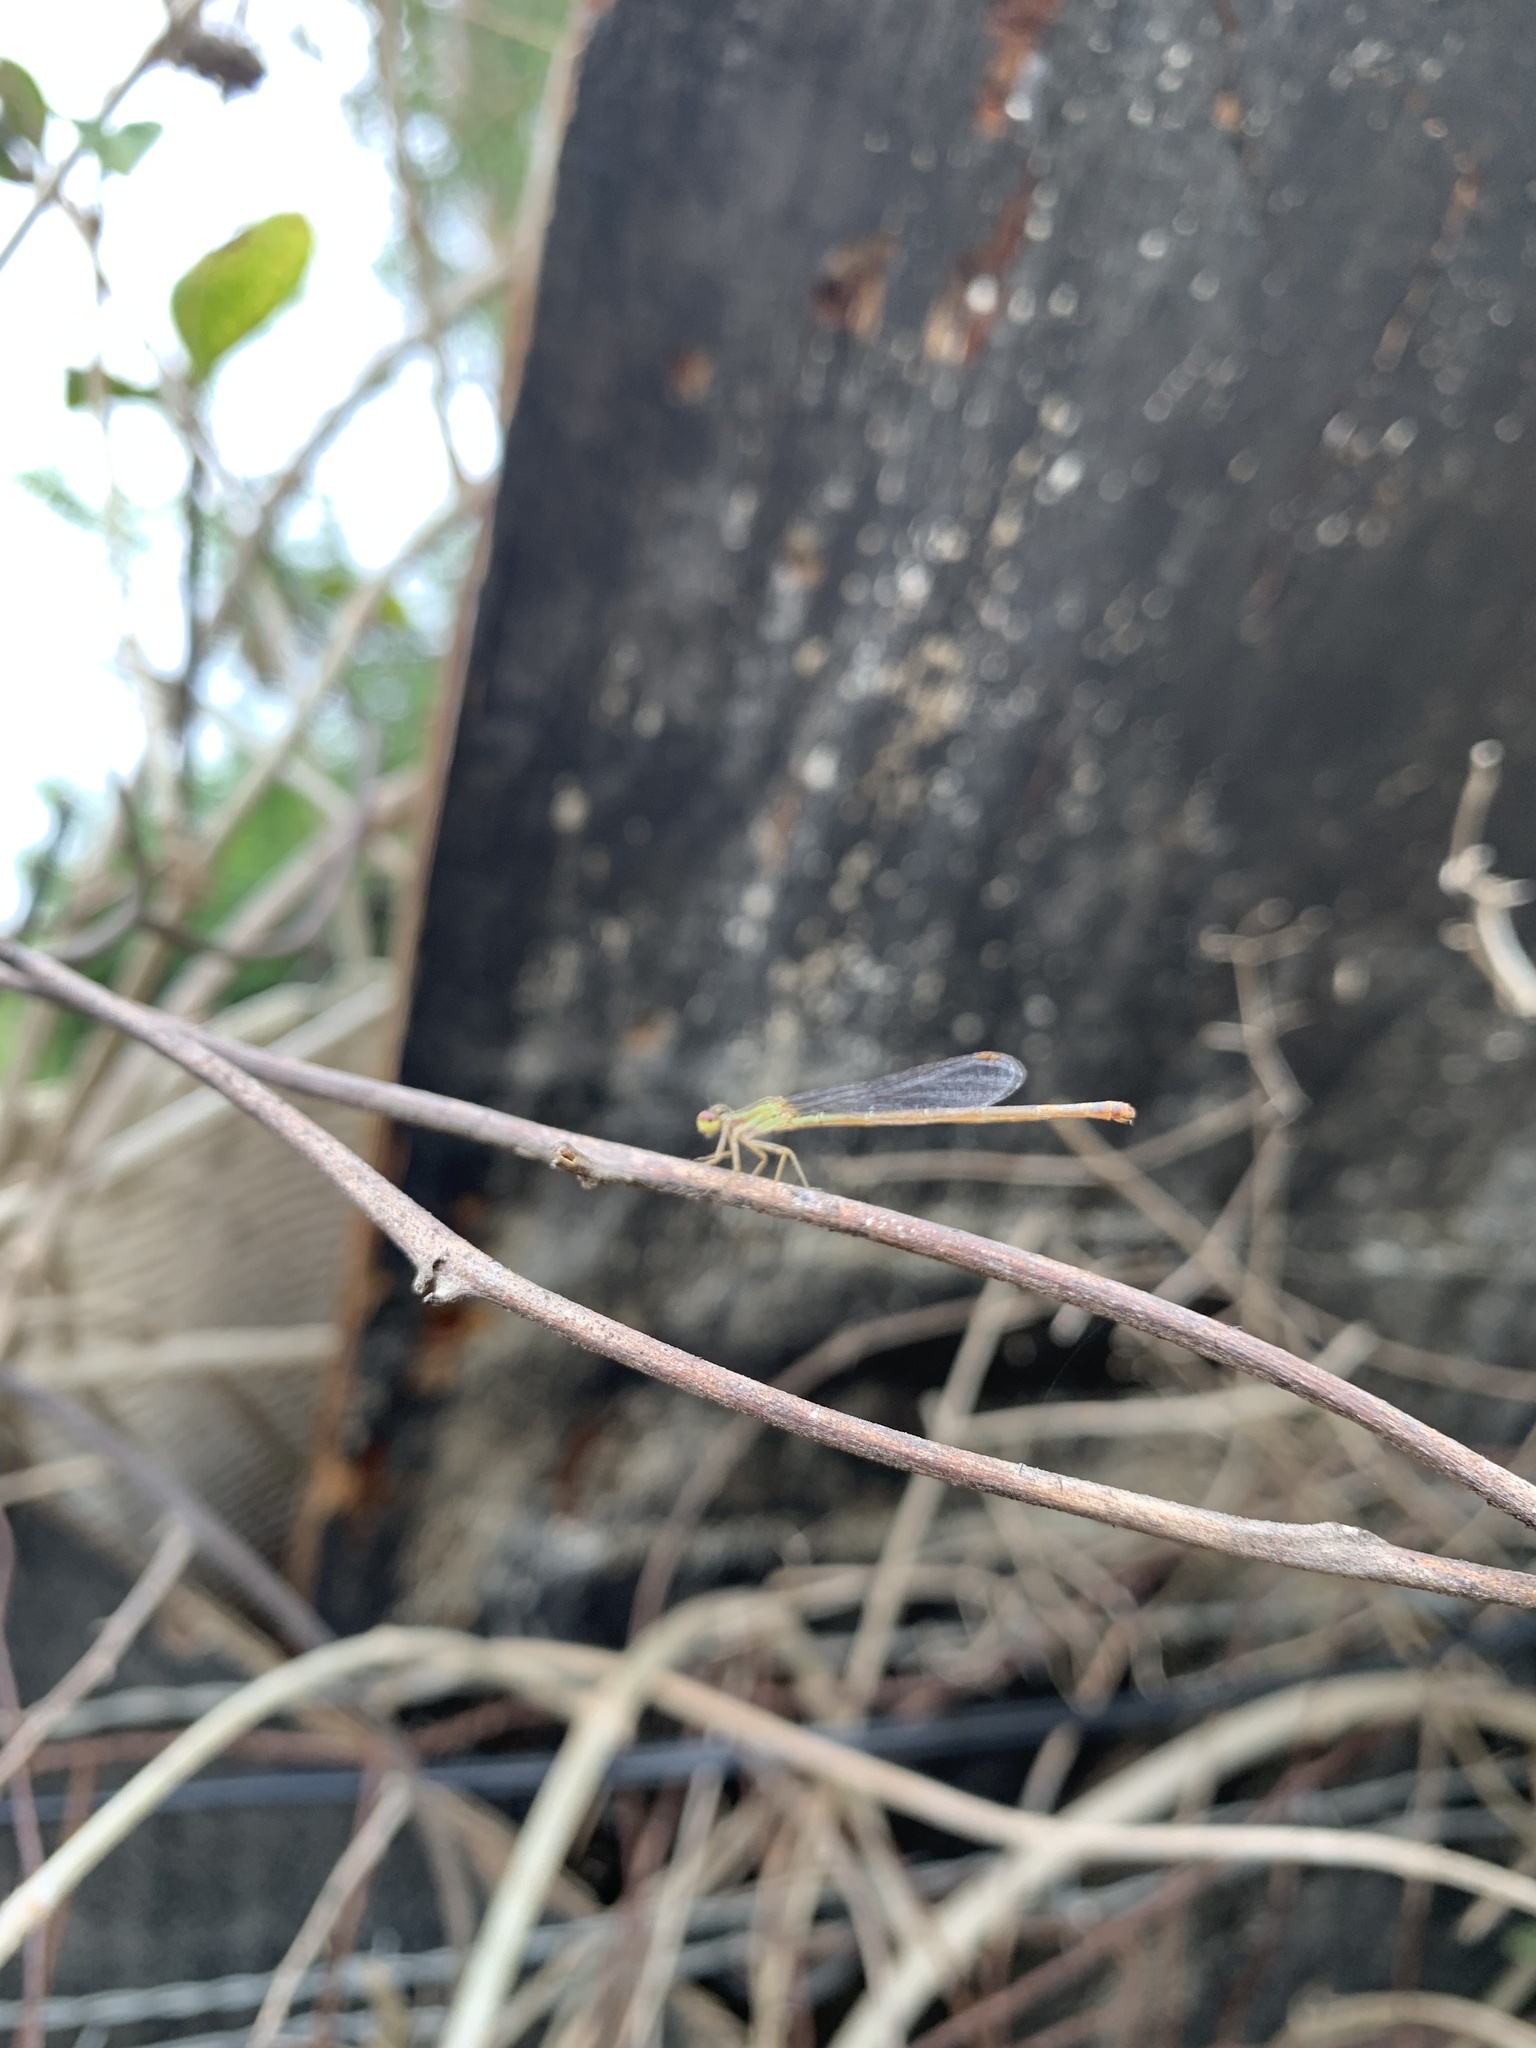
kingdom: Animalia
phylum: Arthropoda
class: Insecta
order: Odonata
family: Coenagrionidae
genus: Telebasis
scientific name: Telebasis filiola
